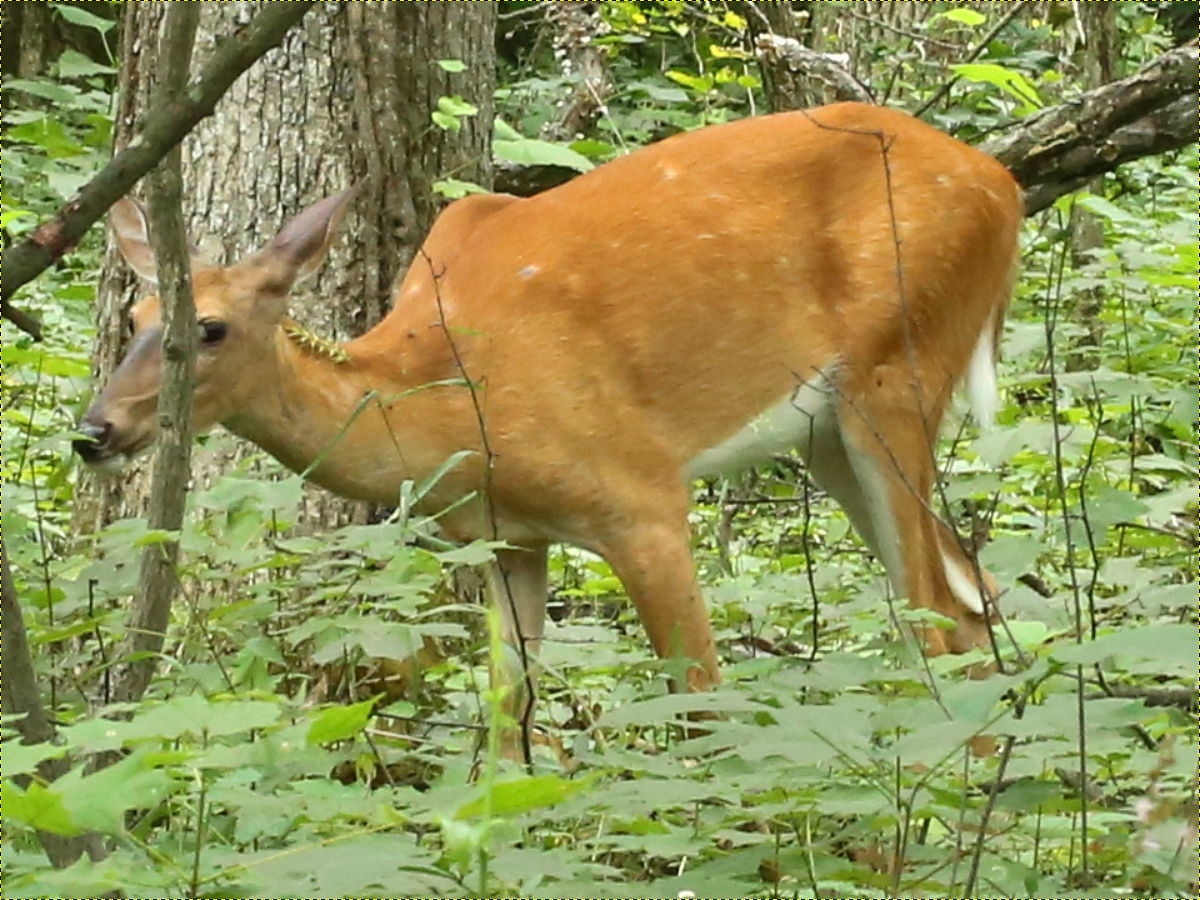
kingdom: Animalia
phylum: Chordata
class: Mammalia
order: Artiodactyla
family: Cervidae
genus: Odocoileus
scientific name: Odocoileus virginianus
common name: White-tailed deer
